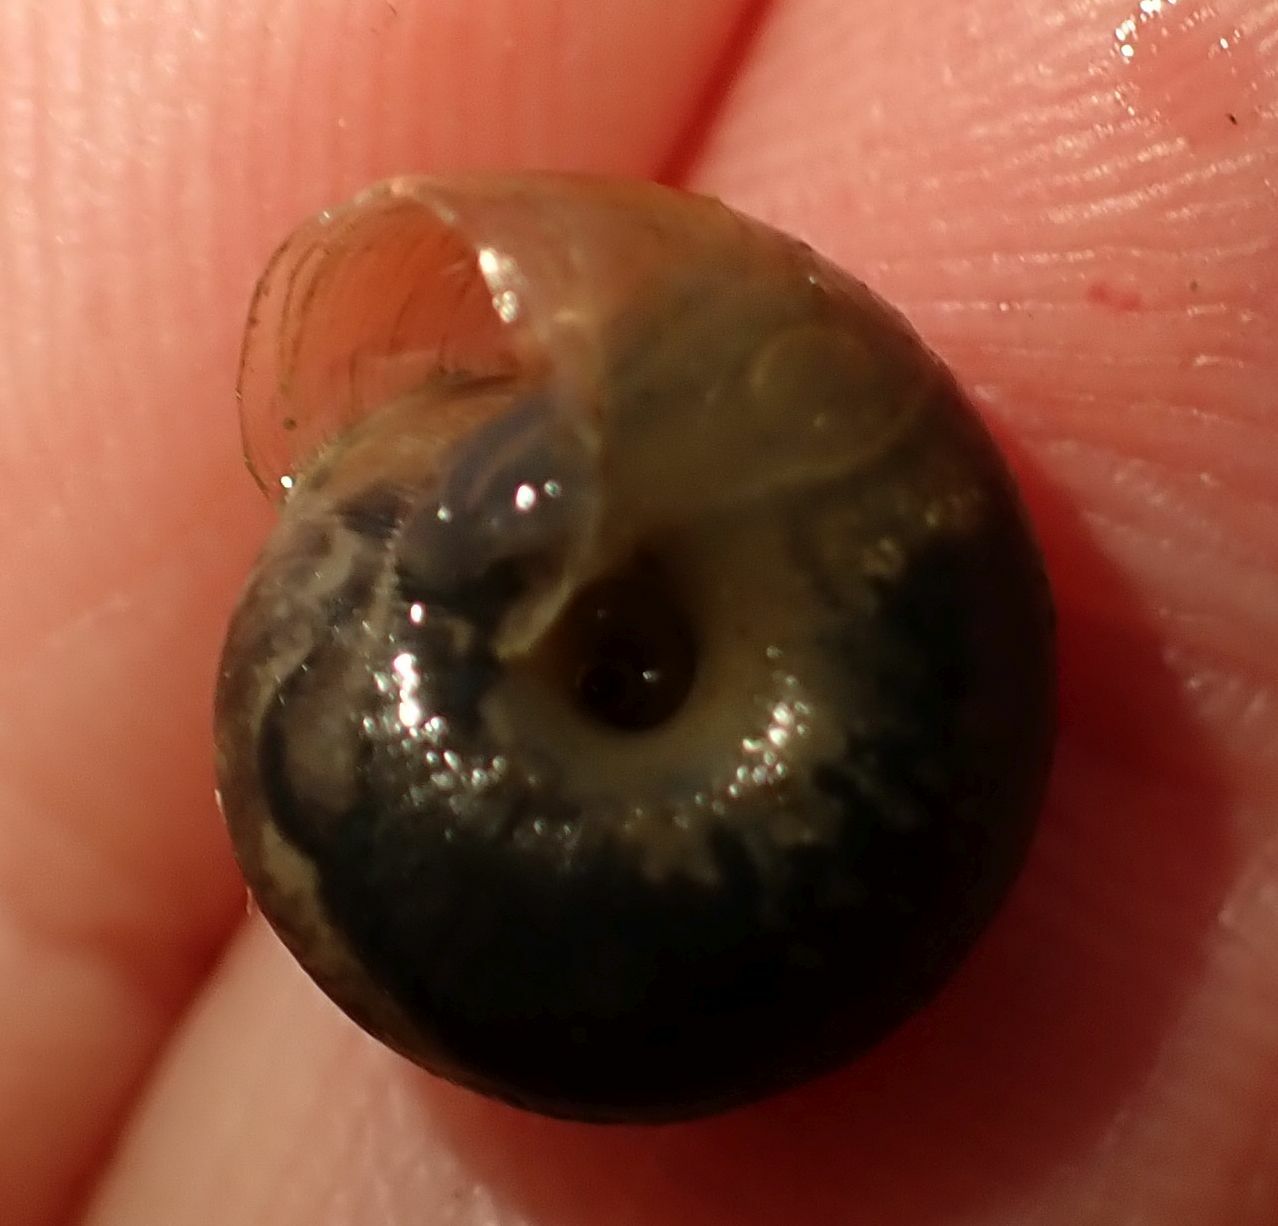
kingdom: Animalia
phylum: Mollusca
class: Gastropoda
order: Stylommatophora
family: Hygromiidae
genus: Trochulus
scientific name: Trochulus striolatus
